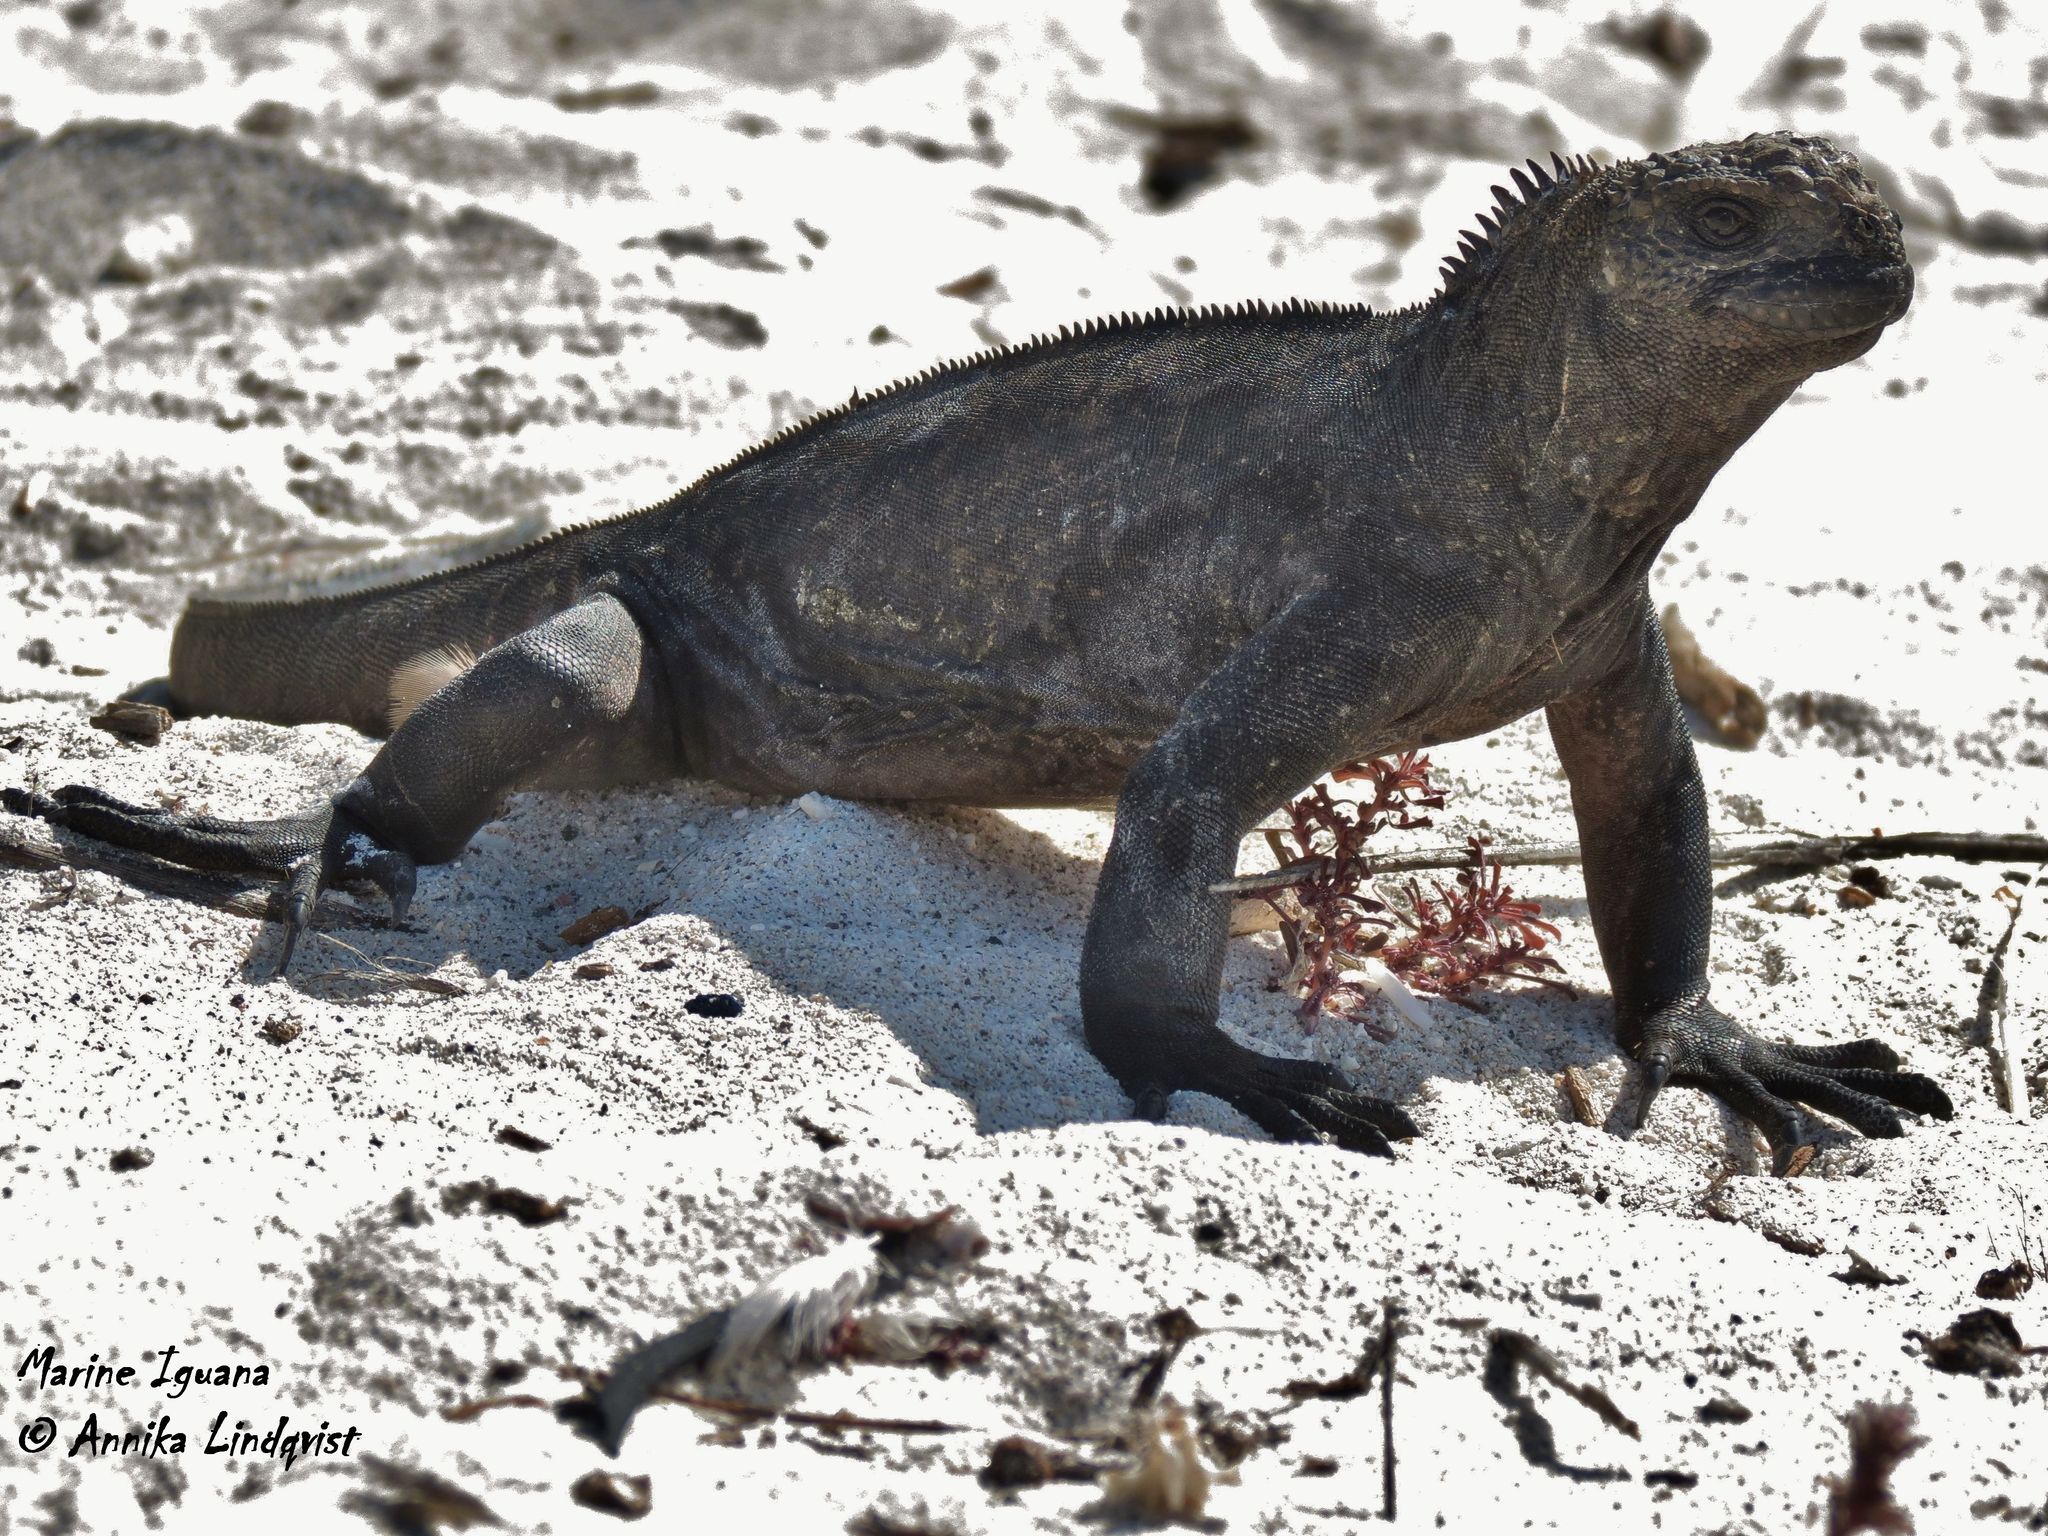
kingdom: Animalia
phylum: Chordata
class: Squamata
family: Iguanidae
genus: Amblyrhynchus
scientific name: Amblyrhynchus cristatus
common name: Marine iguana
